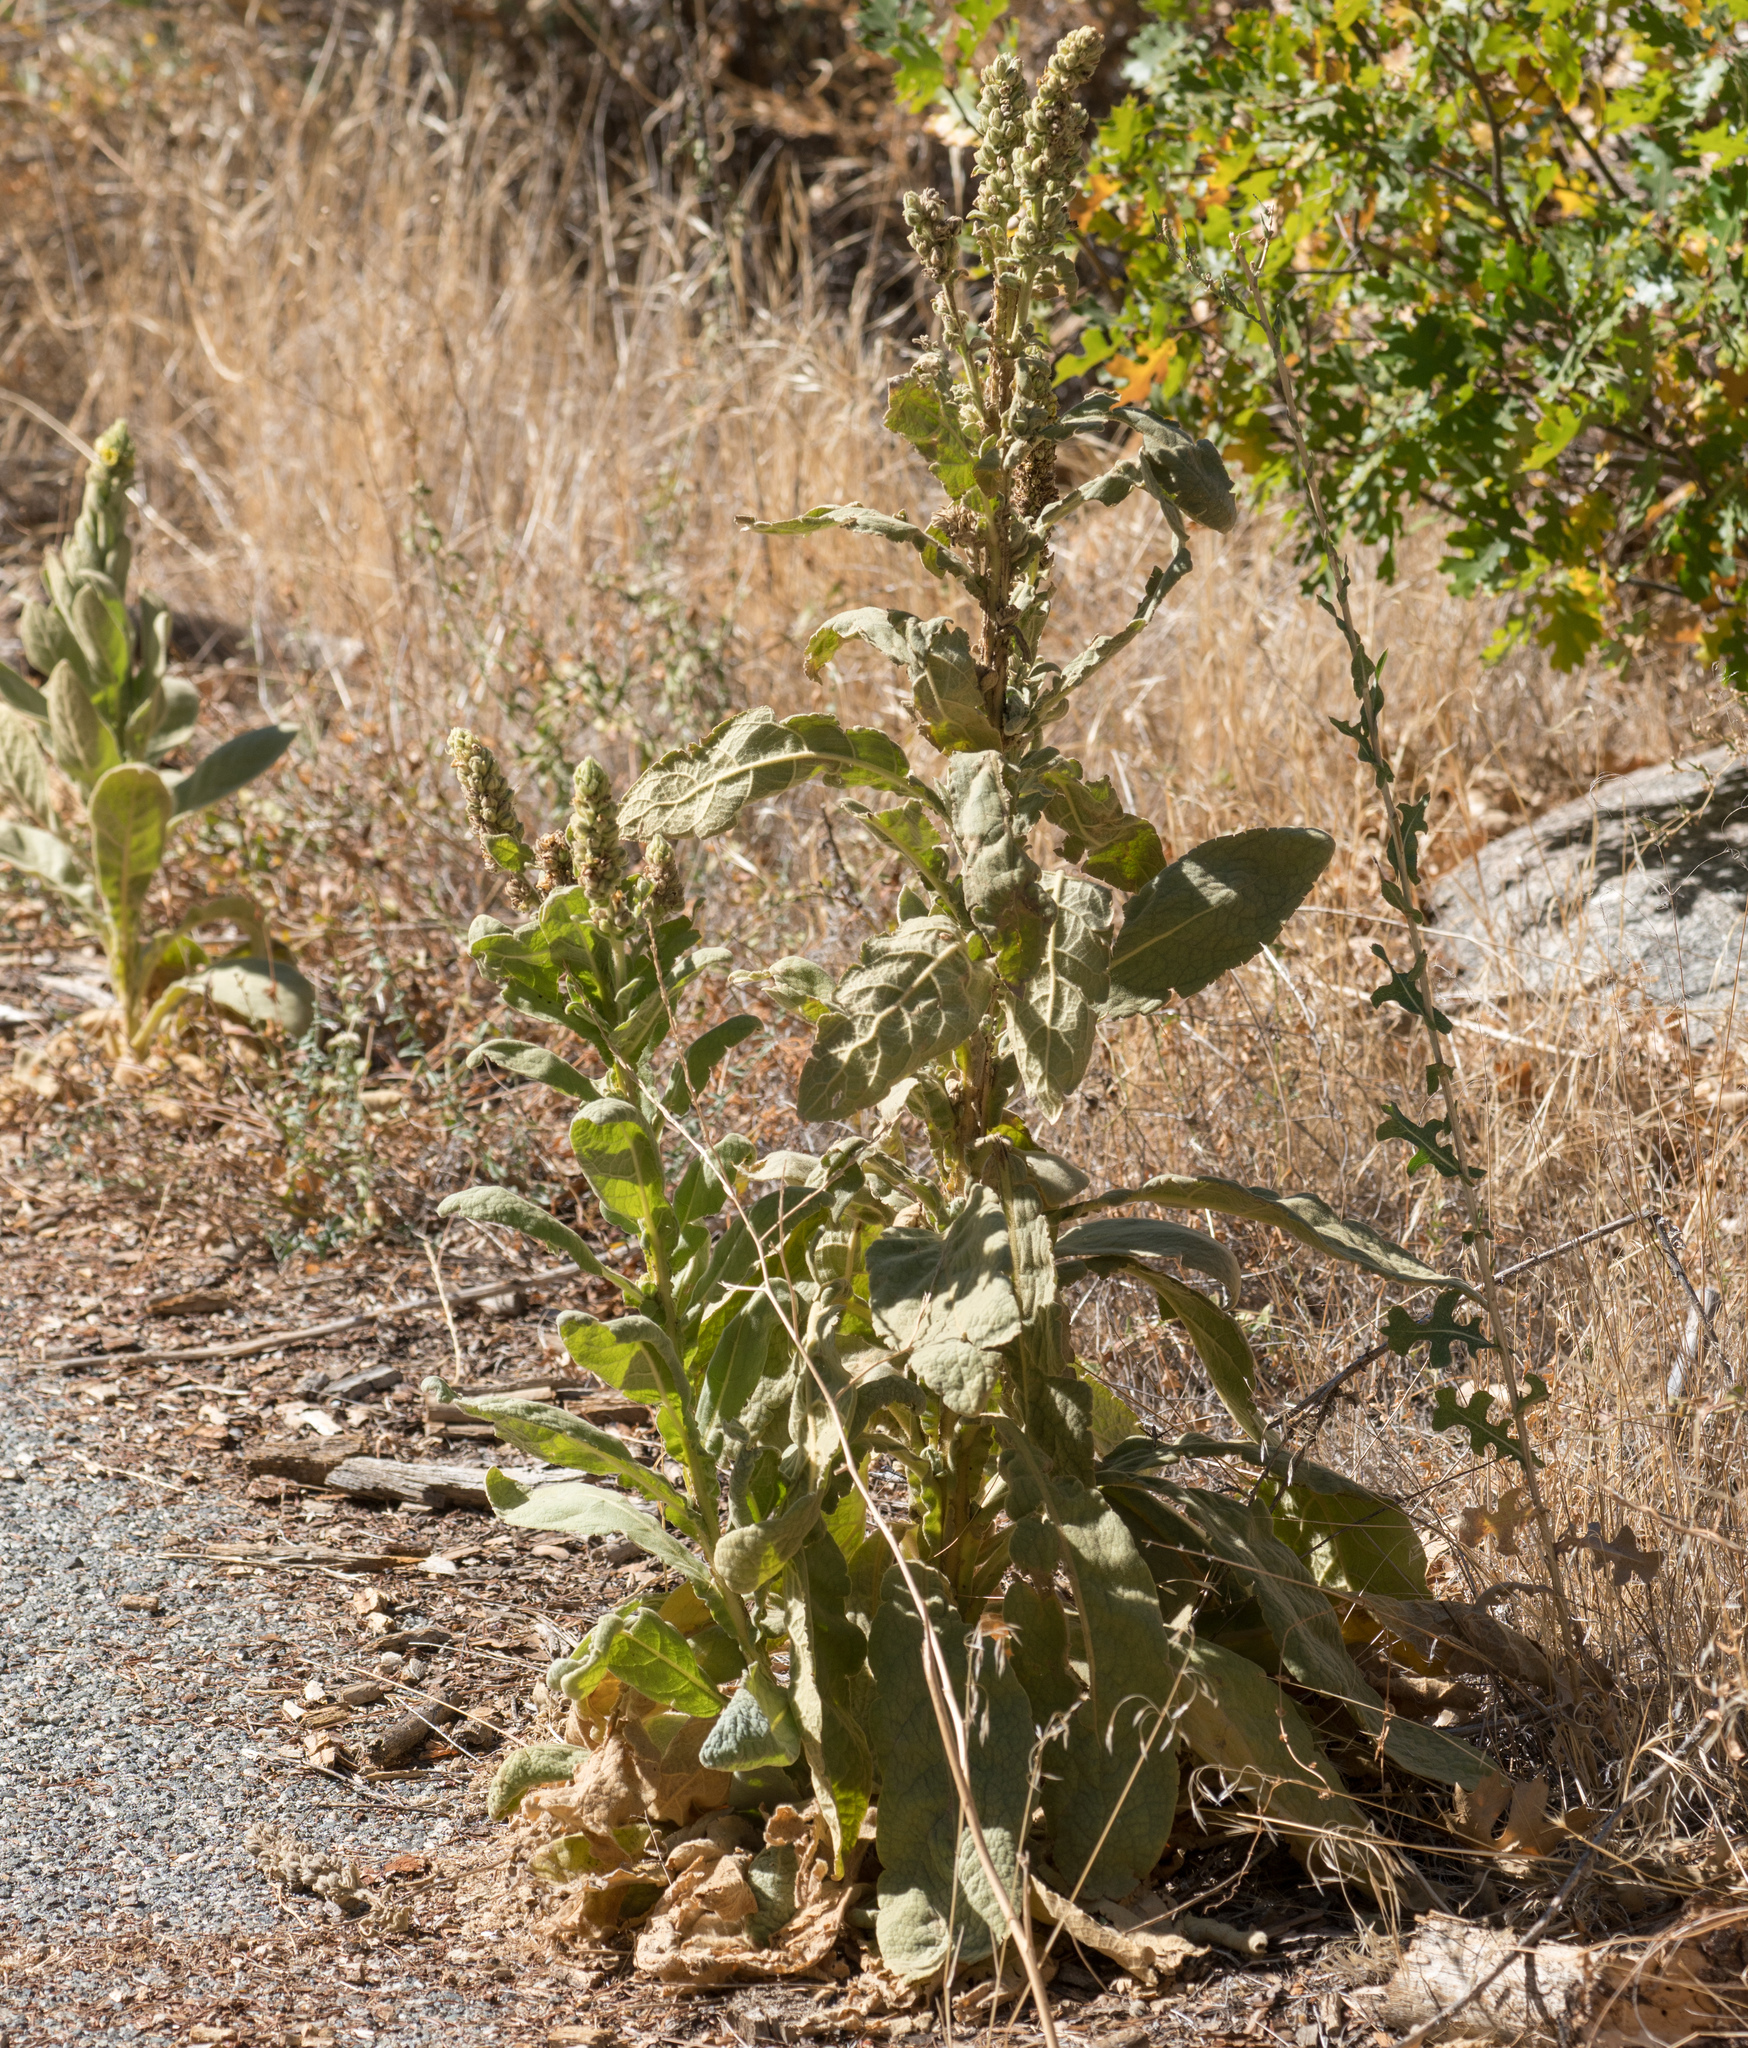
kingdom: Plantae
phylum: Tracheophyta
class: Magnoliopsida
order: Lamiales
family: Scrophulariaceae
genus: Verbascum
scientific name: Verbascum thapsus
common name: Common mullein
